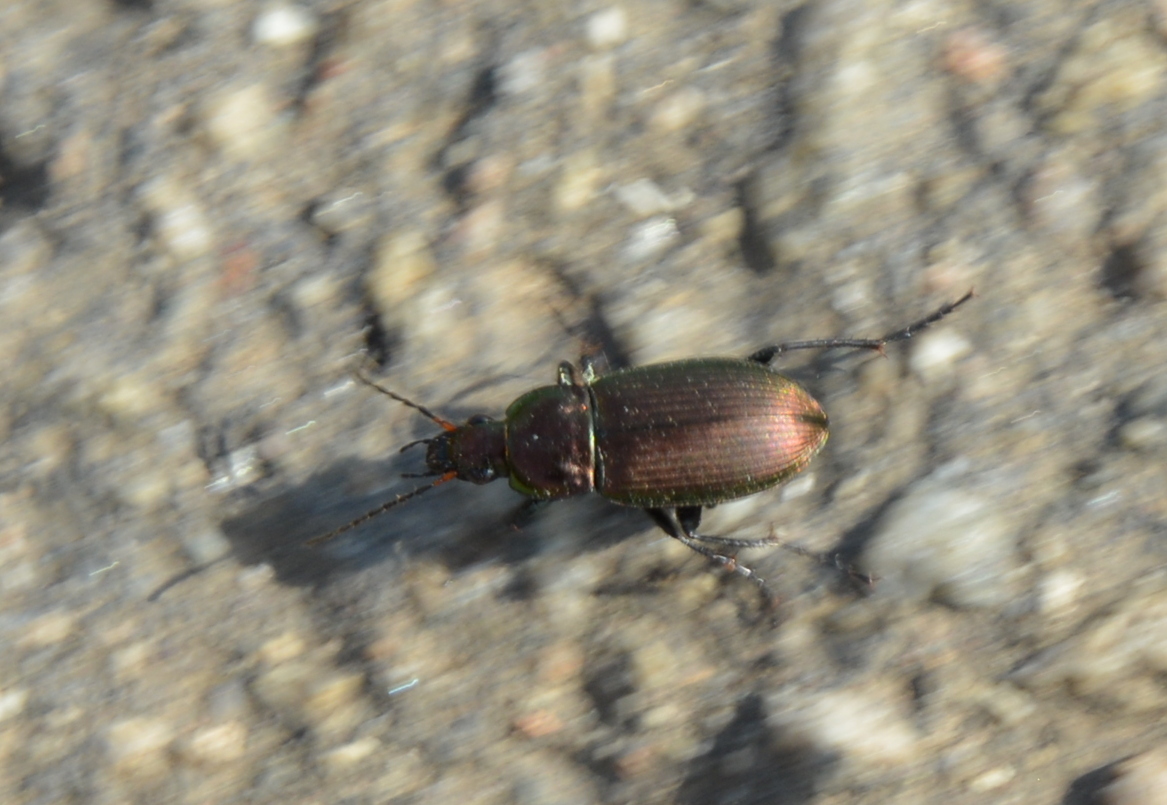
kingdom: Animalia
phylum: Arthropoda
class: Insecta
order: Coleoptera
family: Carabidae
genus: Poecilus
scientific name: Poecilus cupreus
